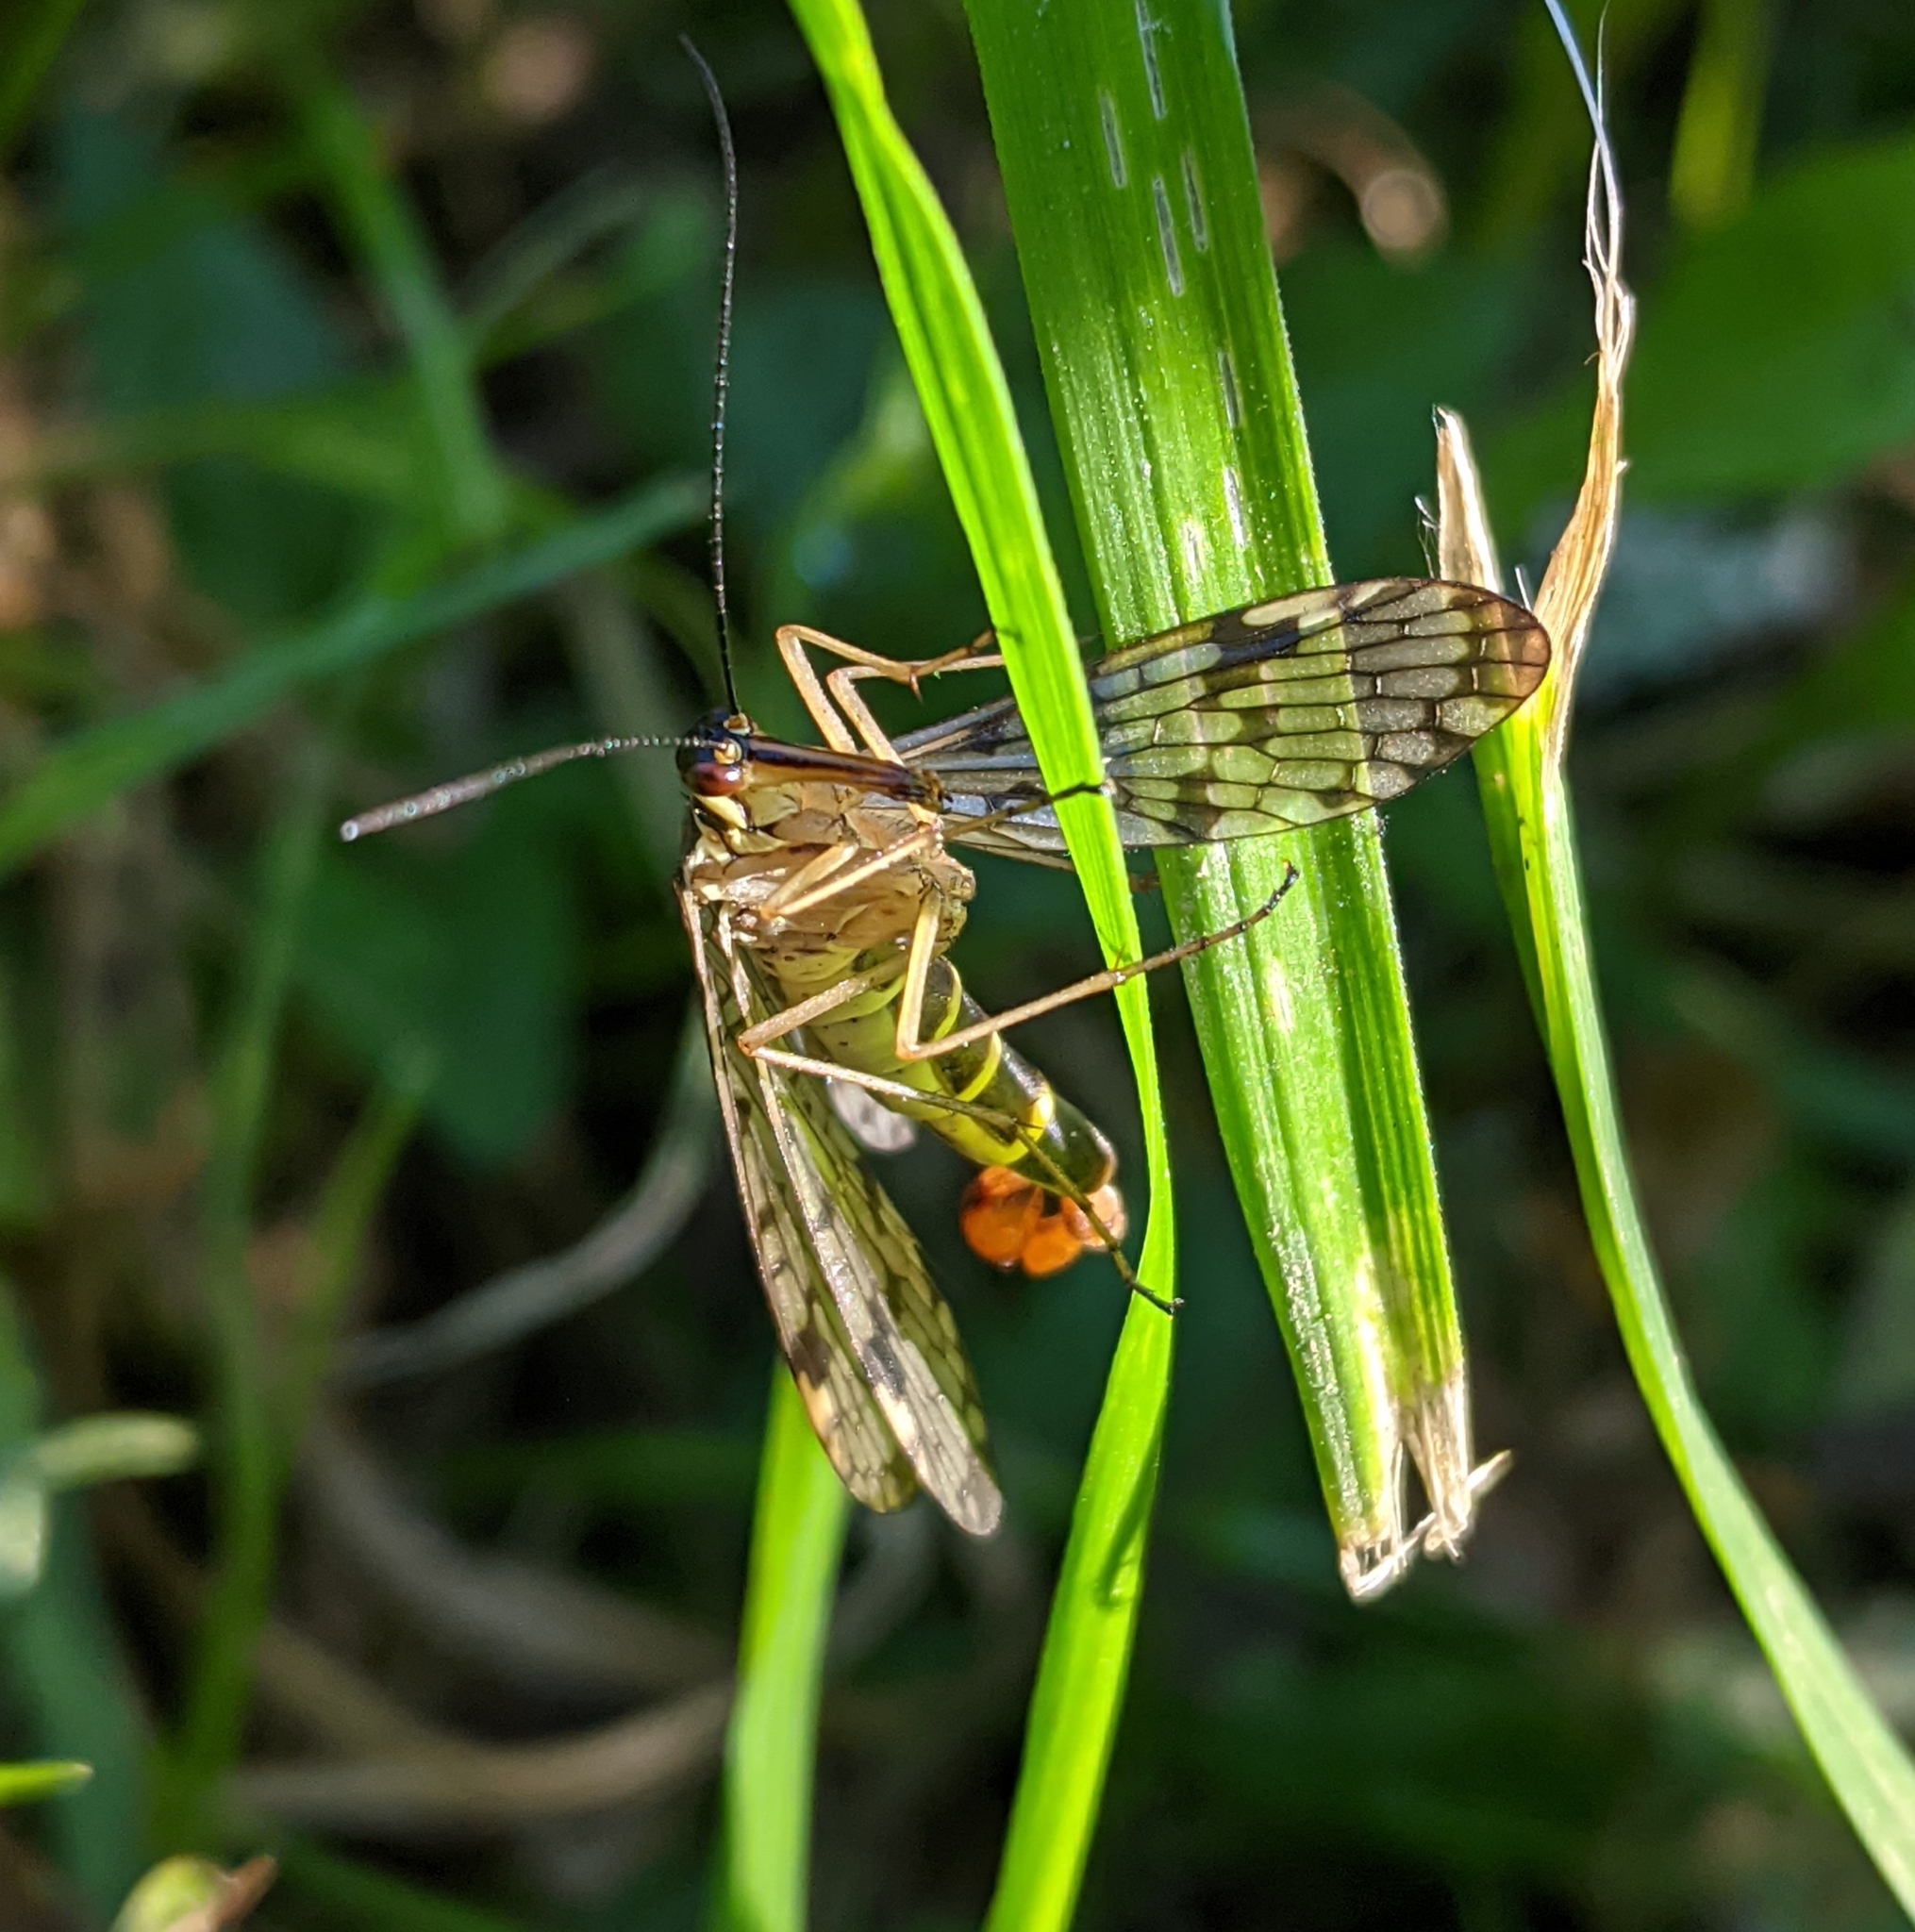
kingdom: Animalia
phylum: Arthropoda
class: Insecta
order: Mecoptera
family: Panorpidae
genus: Panorpa
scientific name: Panorpa hybrida
